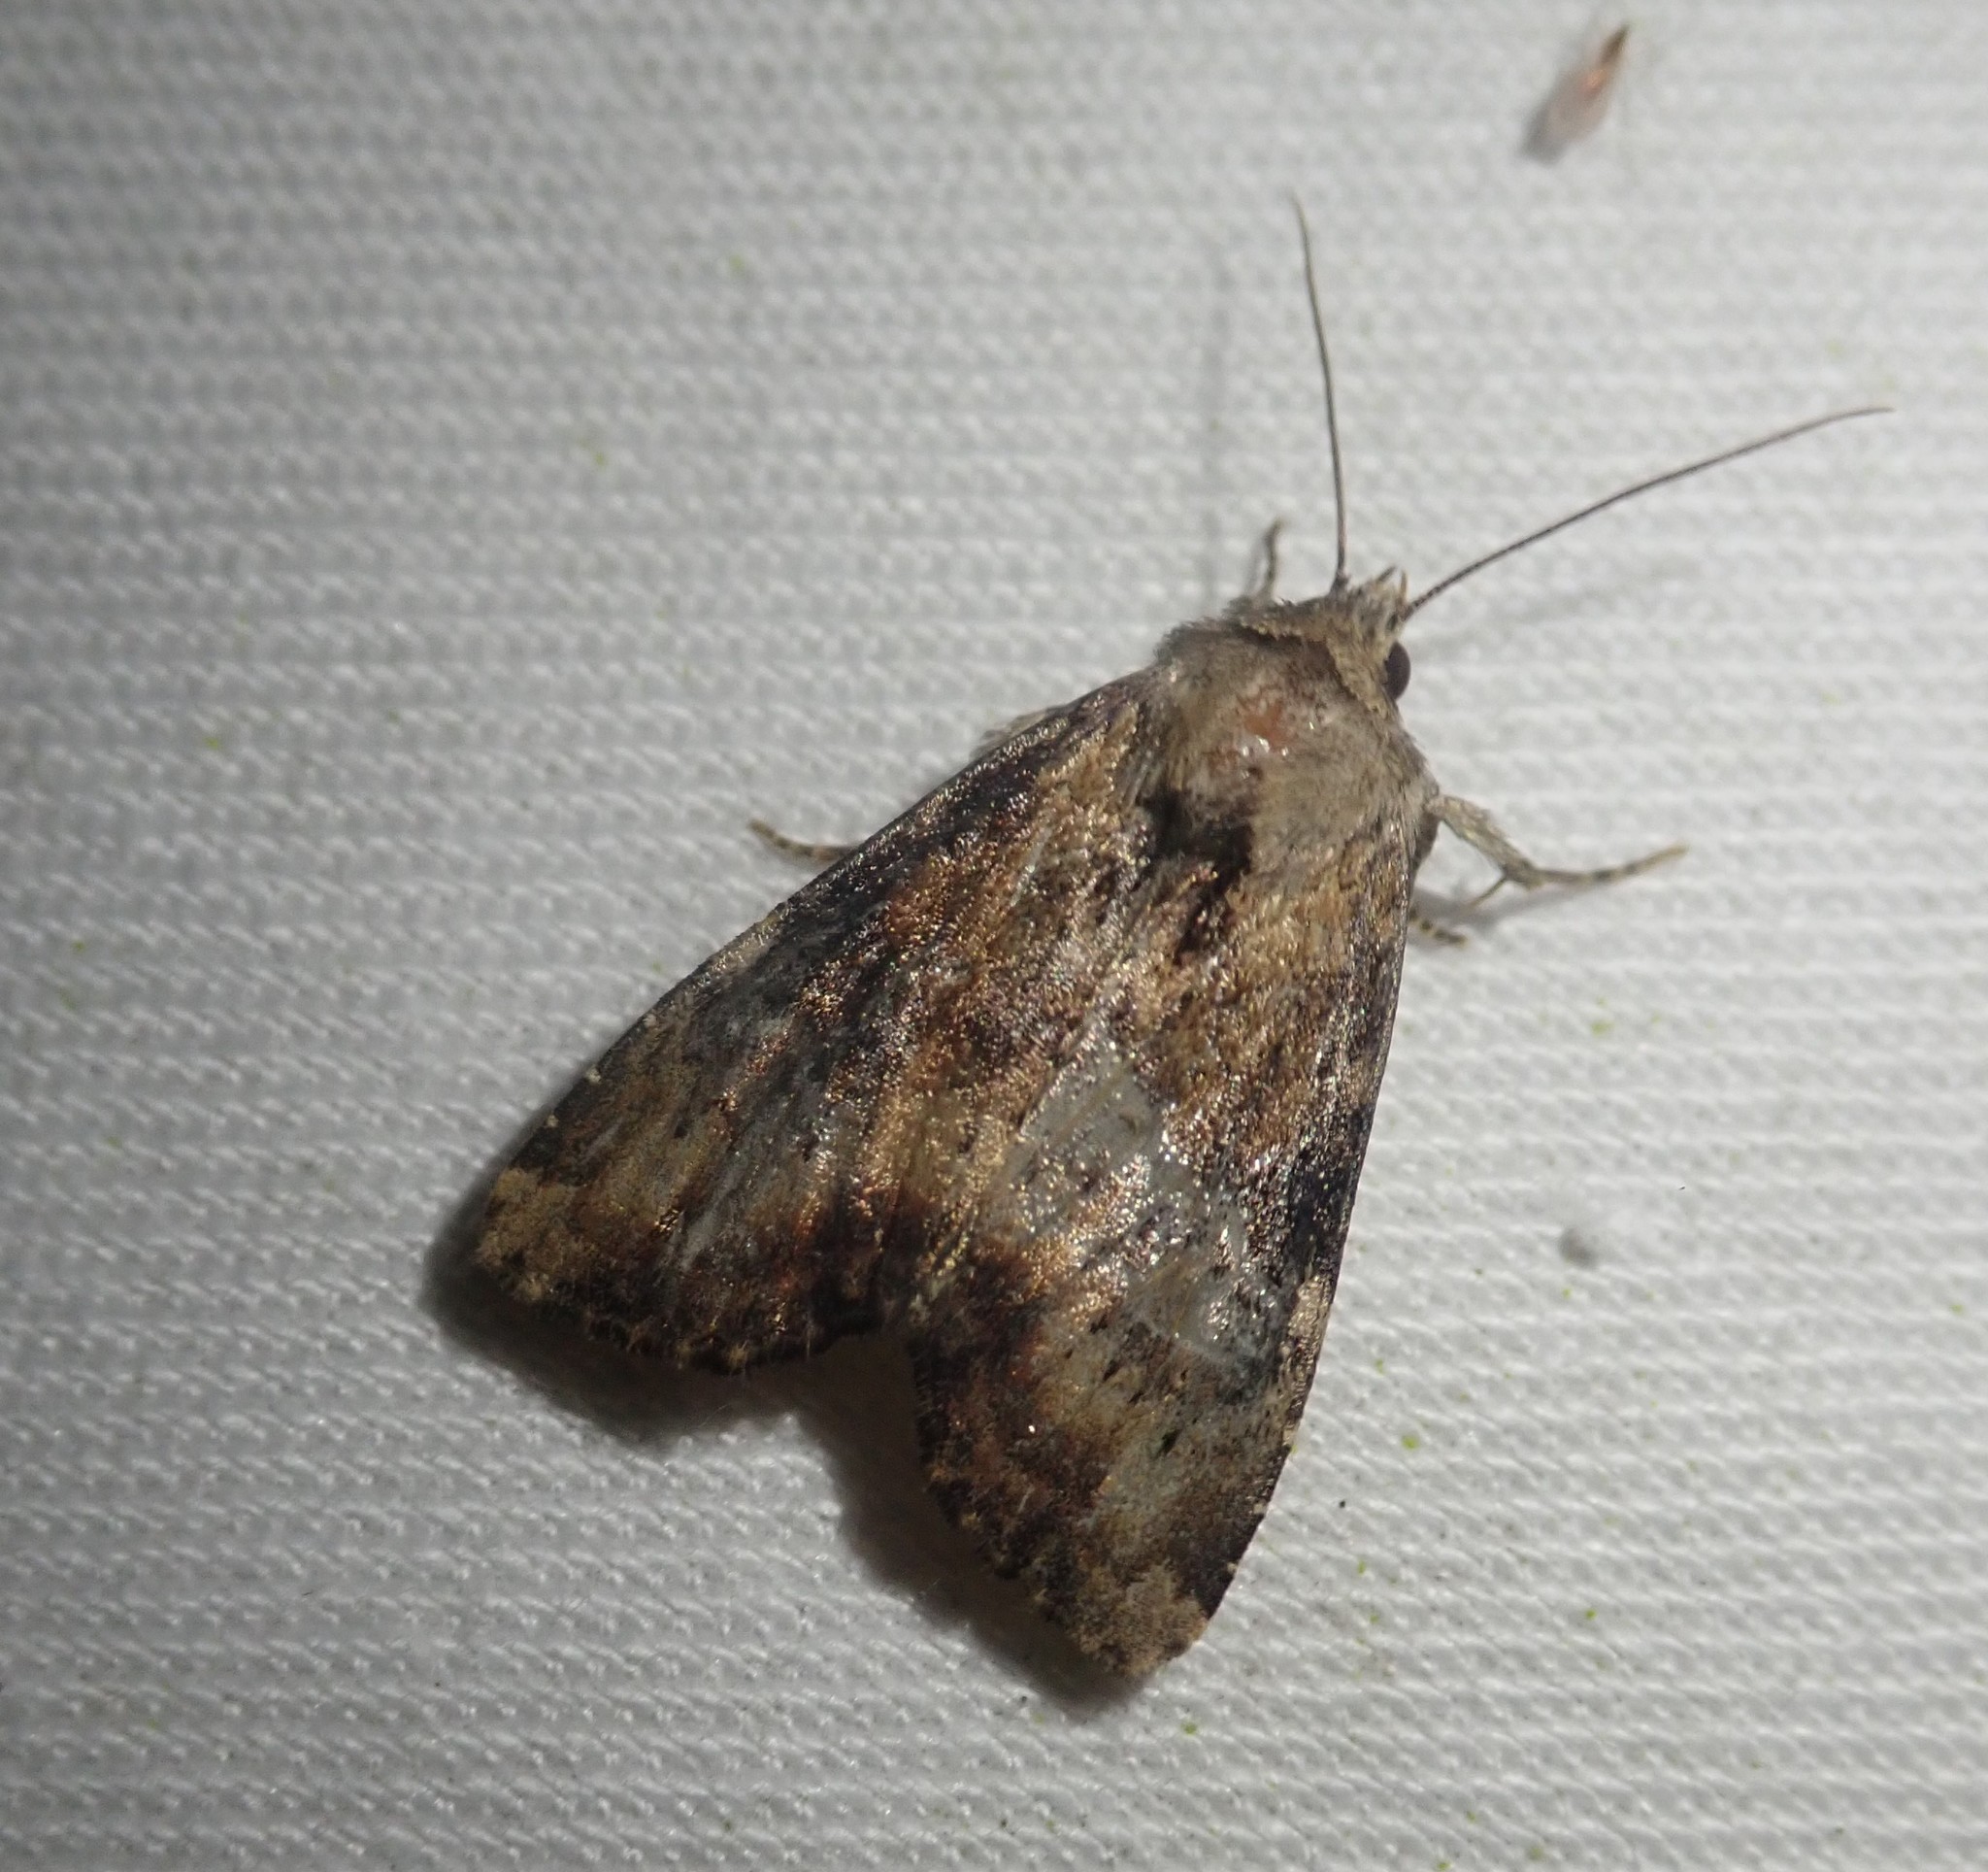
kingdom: Animalia
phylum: Arthropoda
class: Insecta
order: Lepidoptera
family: Noctuidae
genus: Loscopia
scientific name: Loscopia scolopacina
